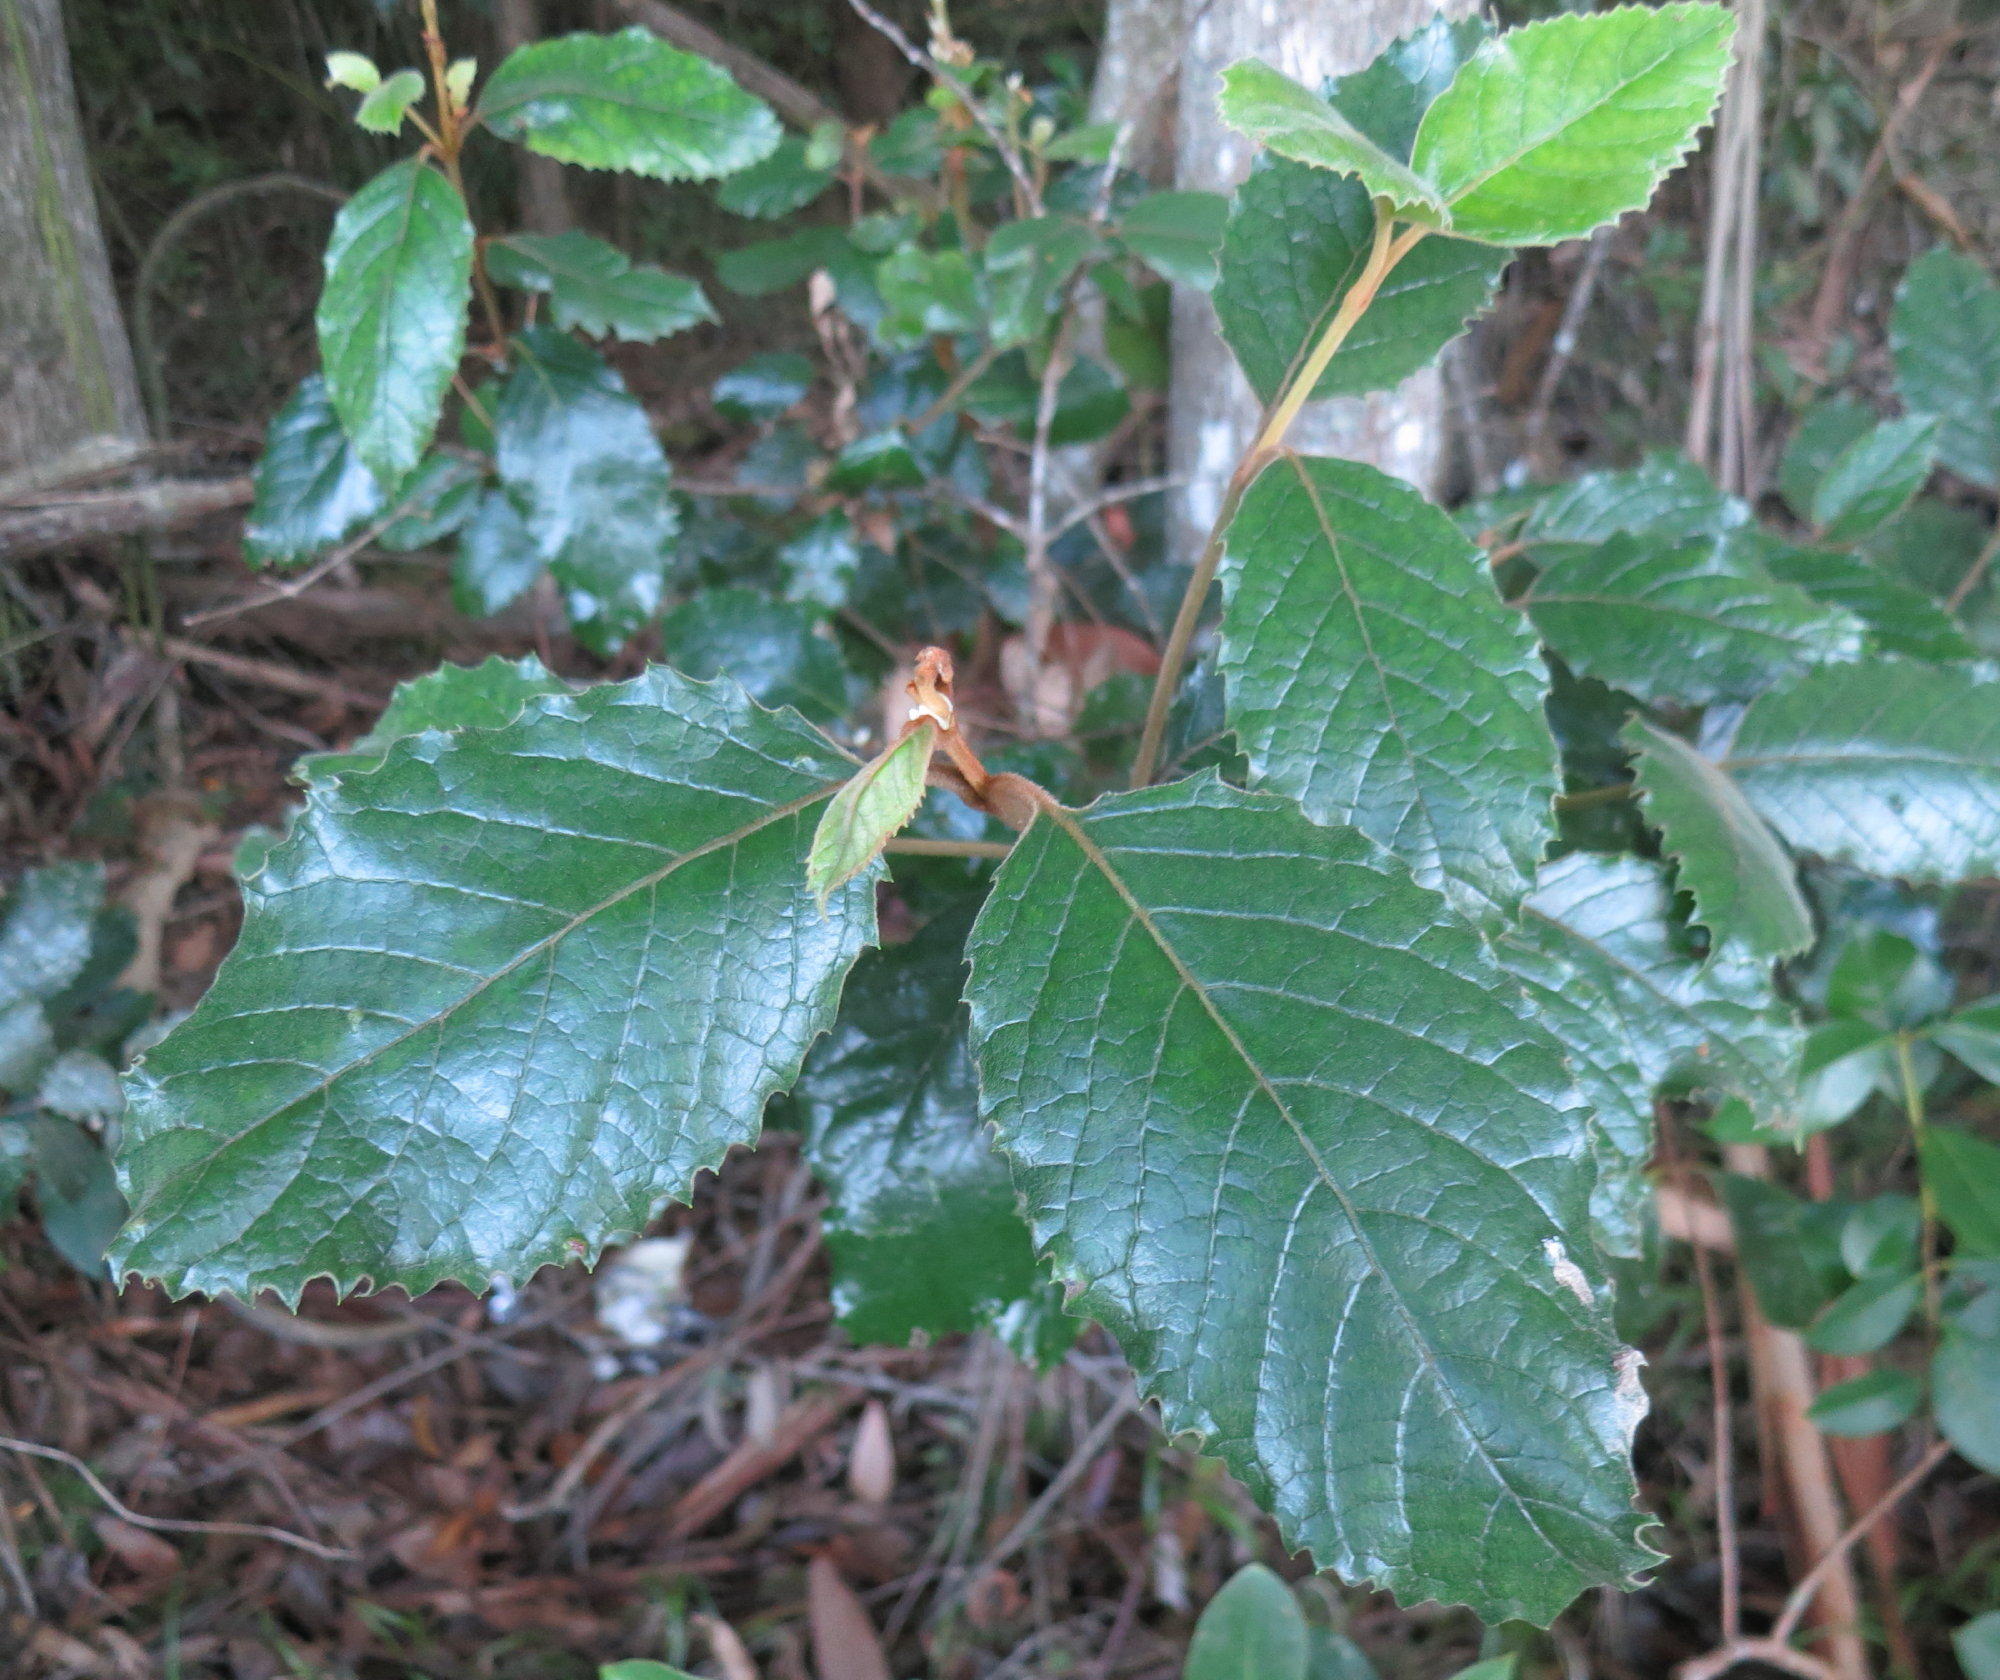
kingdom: Plantae
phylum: Tracheophyta
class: Magnoliopsida
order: Cornales
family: Curtisiaceae
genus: Curtisia
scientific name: Curtisia dentata
